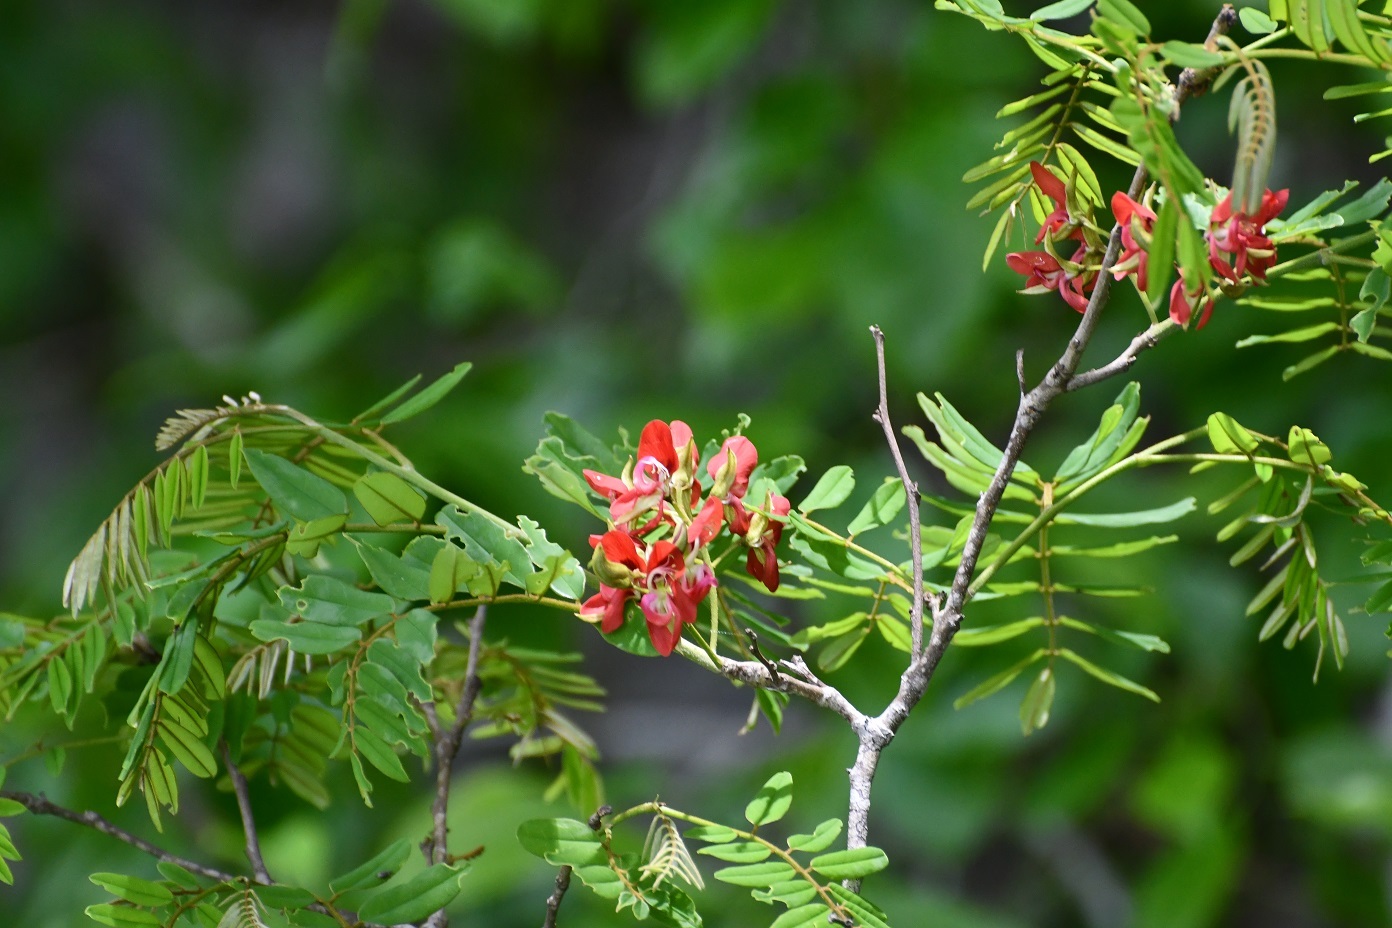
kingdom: Plantae
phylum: Tracheophyta
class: Magnoliopsida
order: Fabales
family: Fabaceae
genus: Harpalyce
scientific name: Harpalyce formosa
